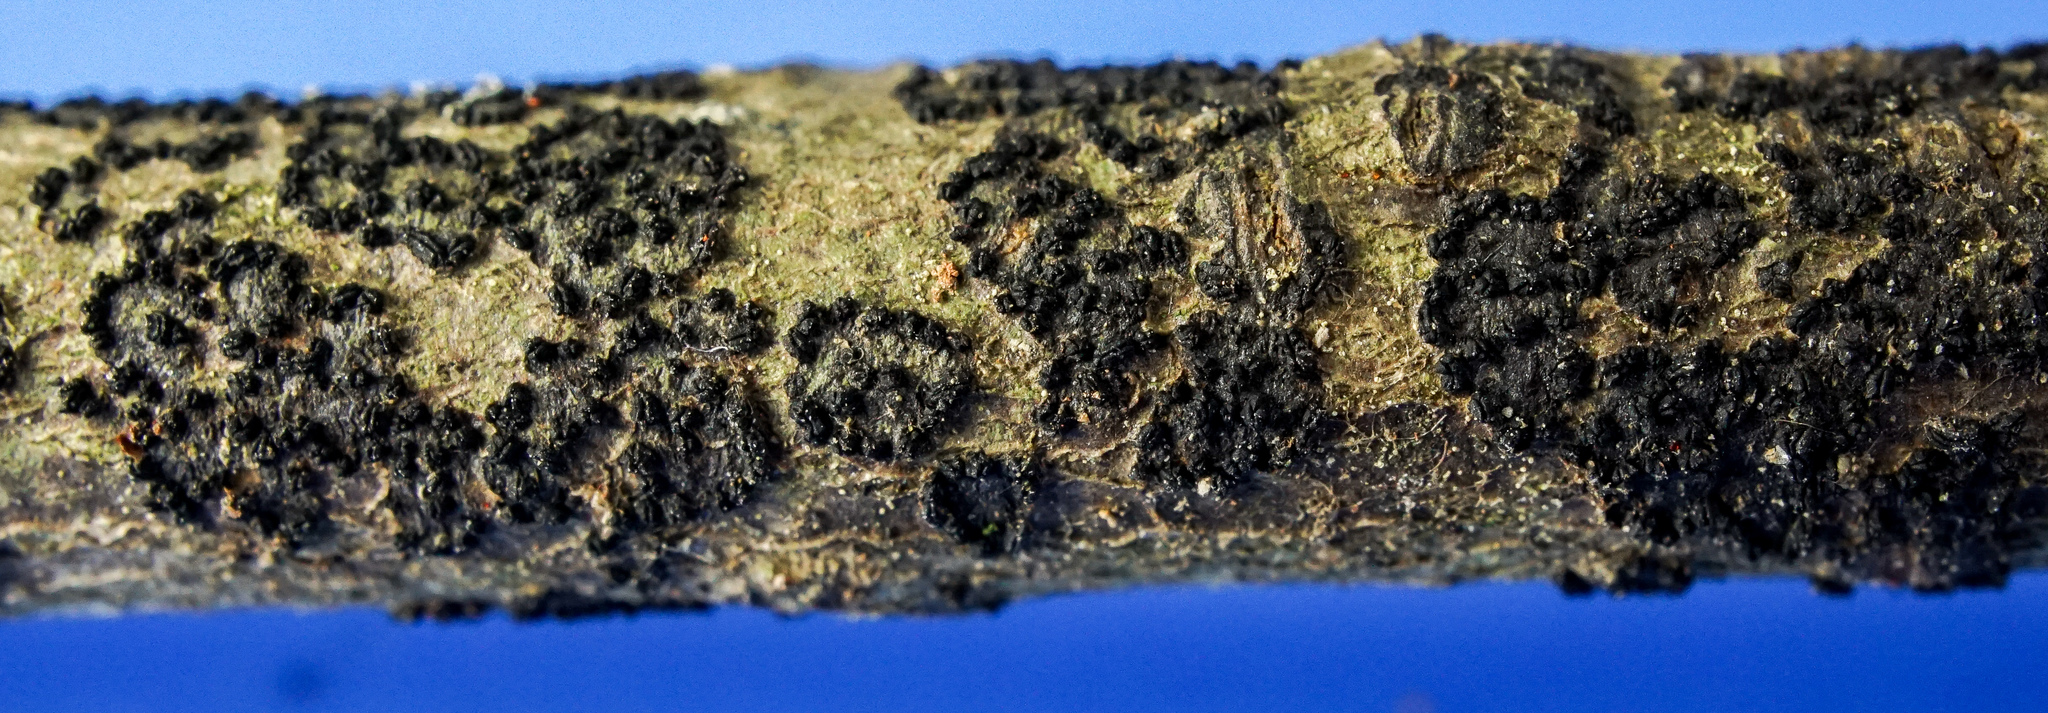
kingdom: Fungi
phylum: Ascomycota
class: Leotiomycetes
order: Rhytismatales
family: Ascodichaenaceae
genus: Ascodichaena
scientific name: Ascodichaena rugosa
